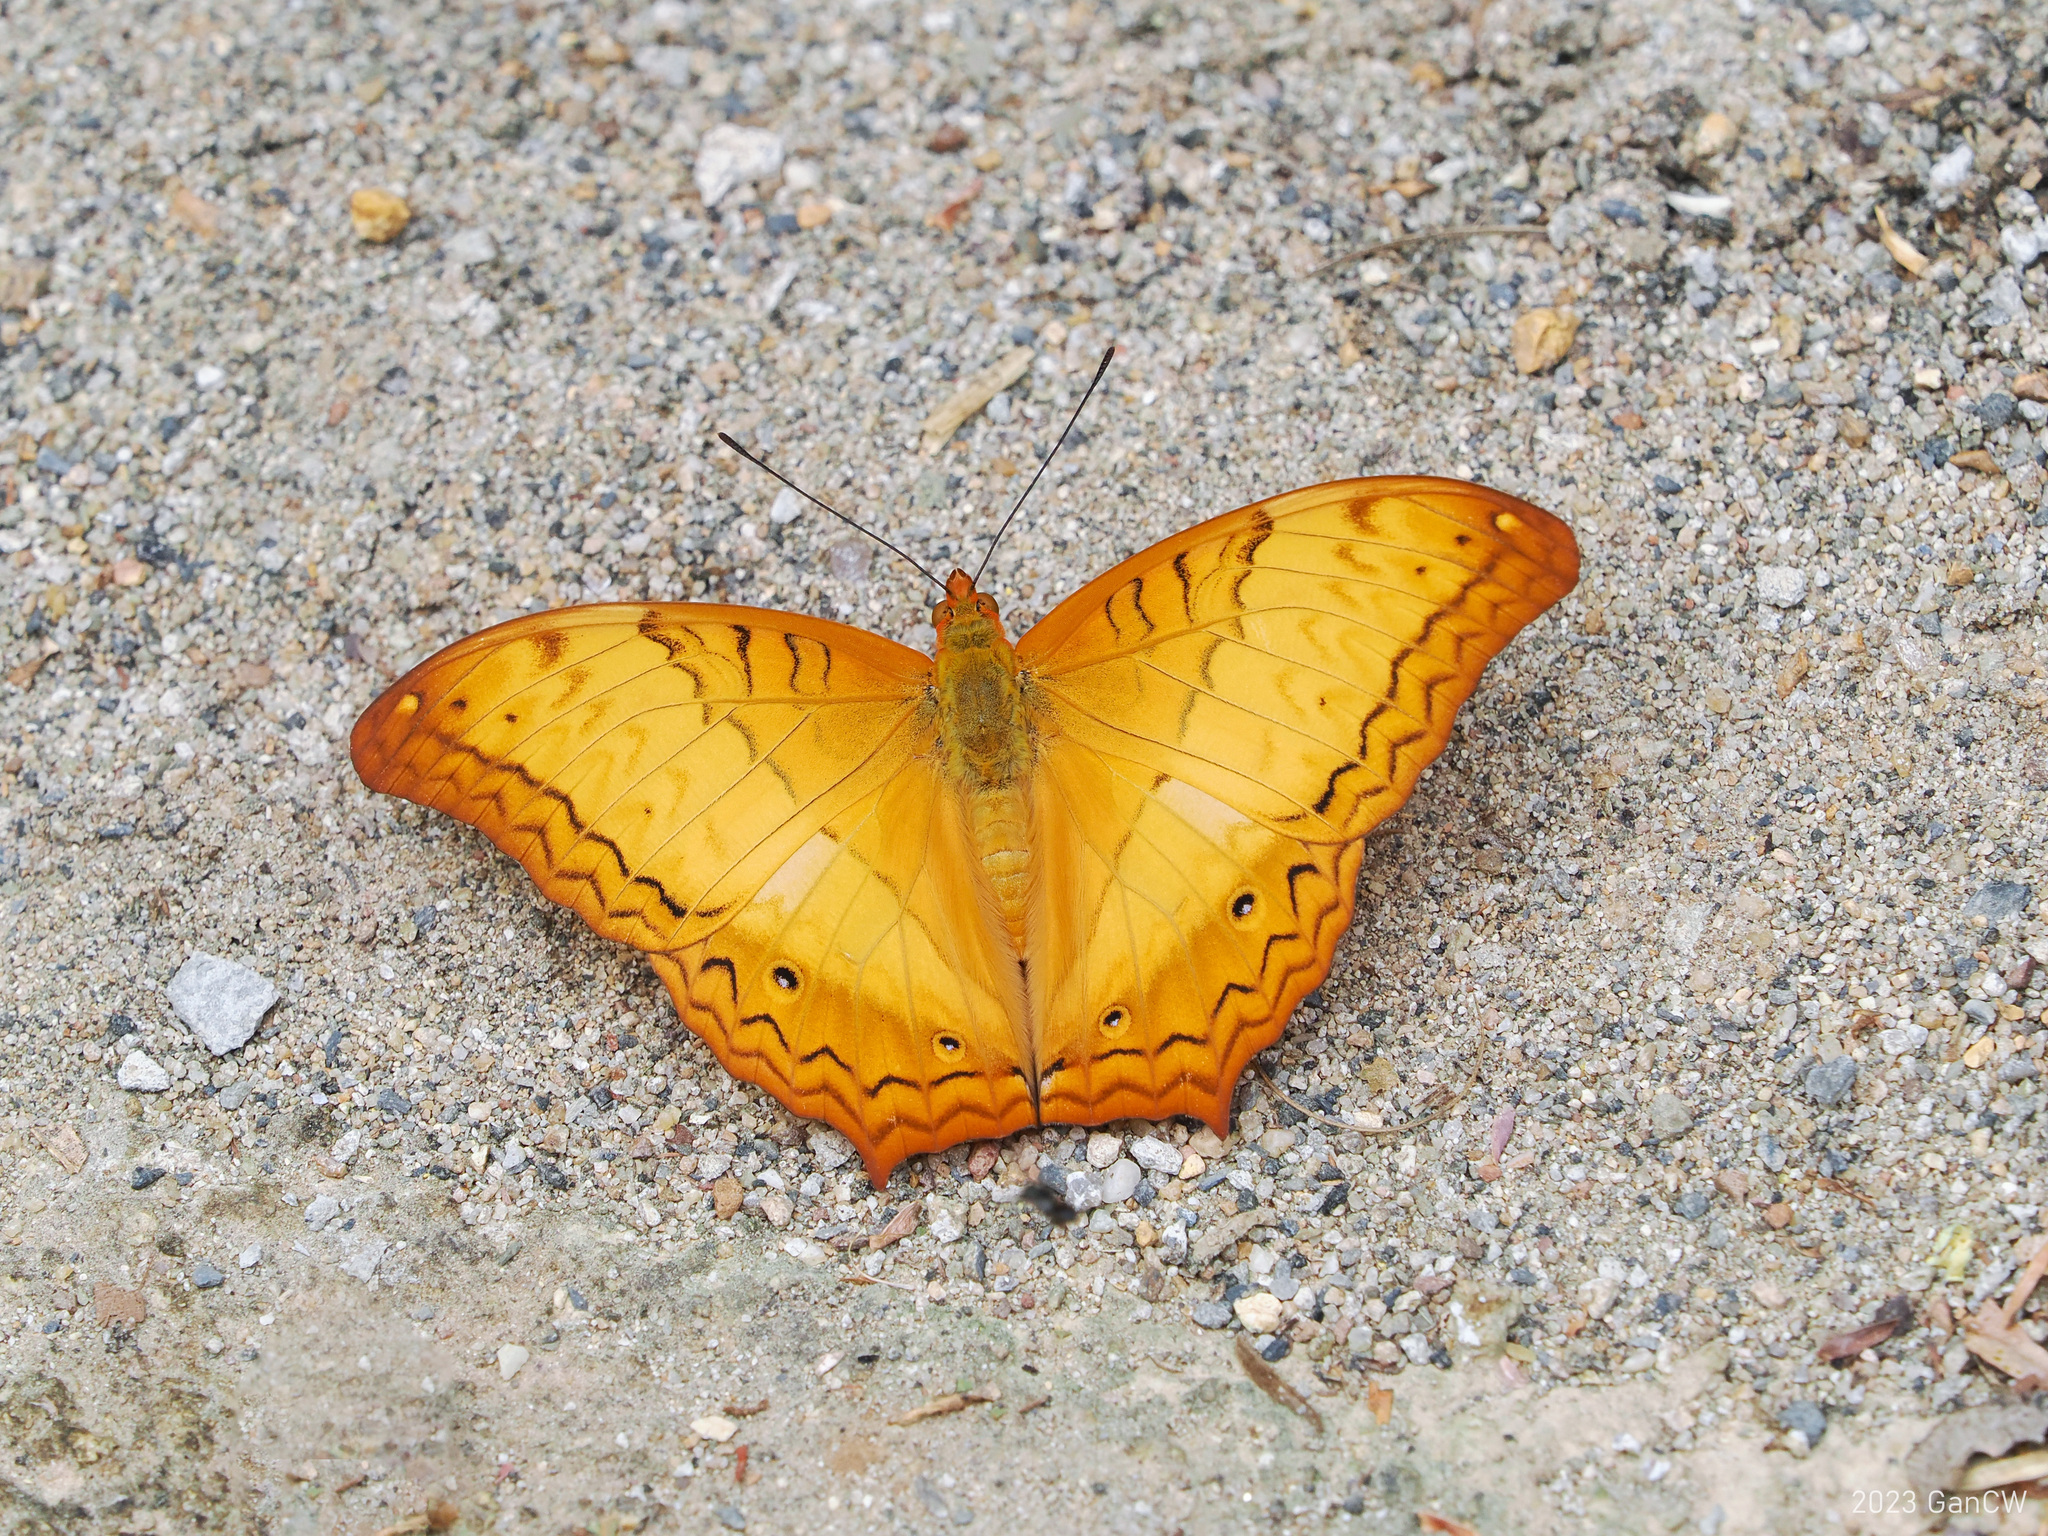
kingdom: Animalia
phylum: Arthropoda
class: Insecta
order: Lepidoptera
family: Nymphalidae
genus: Vindula
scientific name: Vindula erota
